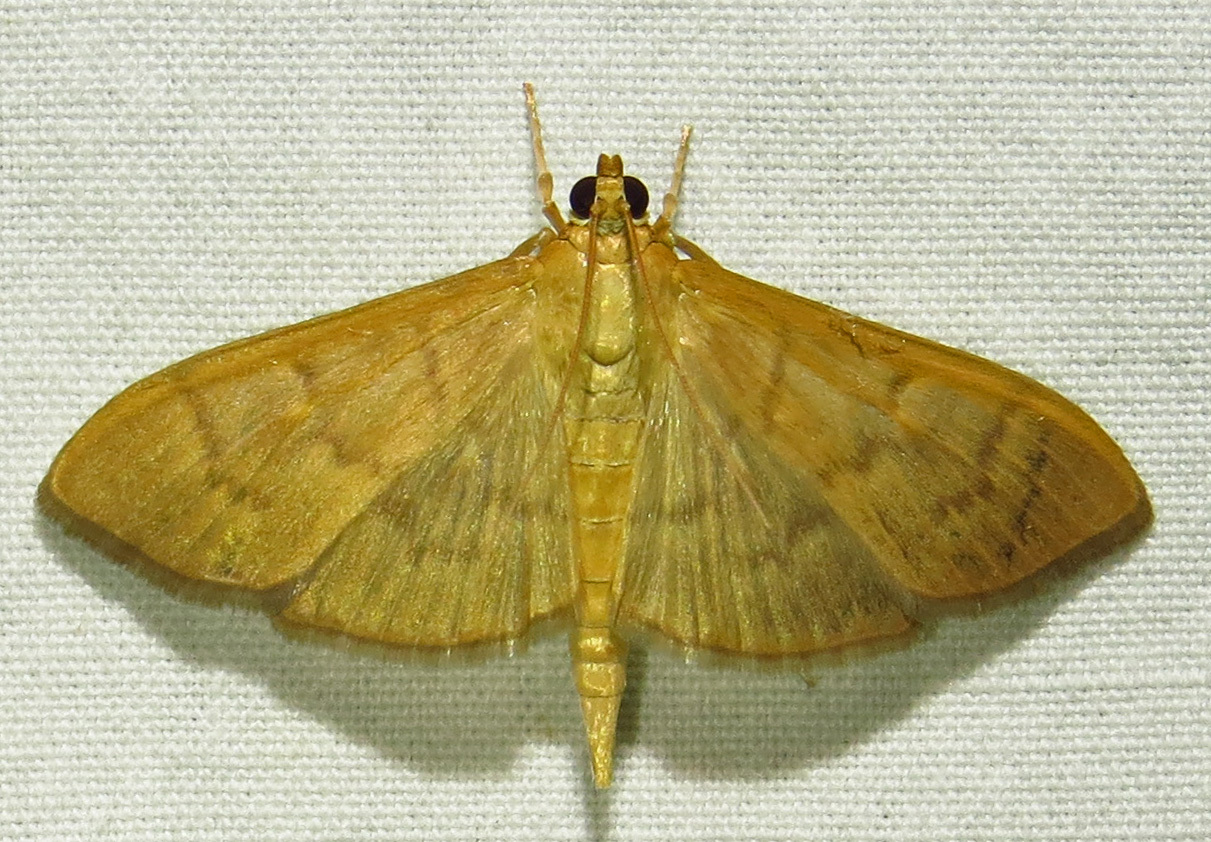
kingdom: Animalia
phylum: Arthropoda
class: Insecta
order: Lepidoptera
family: Crambidae
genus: Pleuroptya
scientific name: Pleuroptya silicalis
